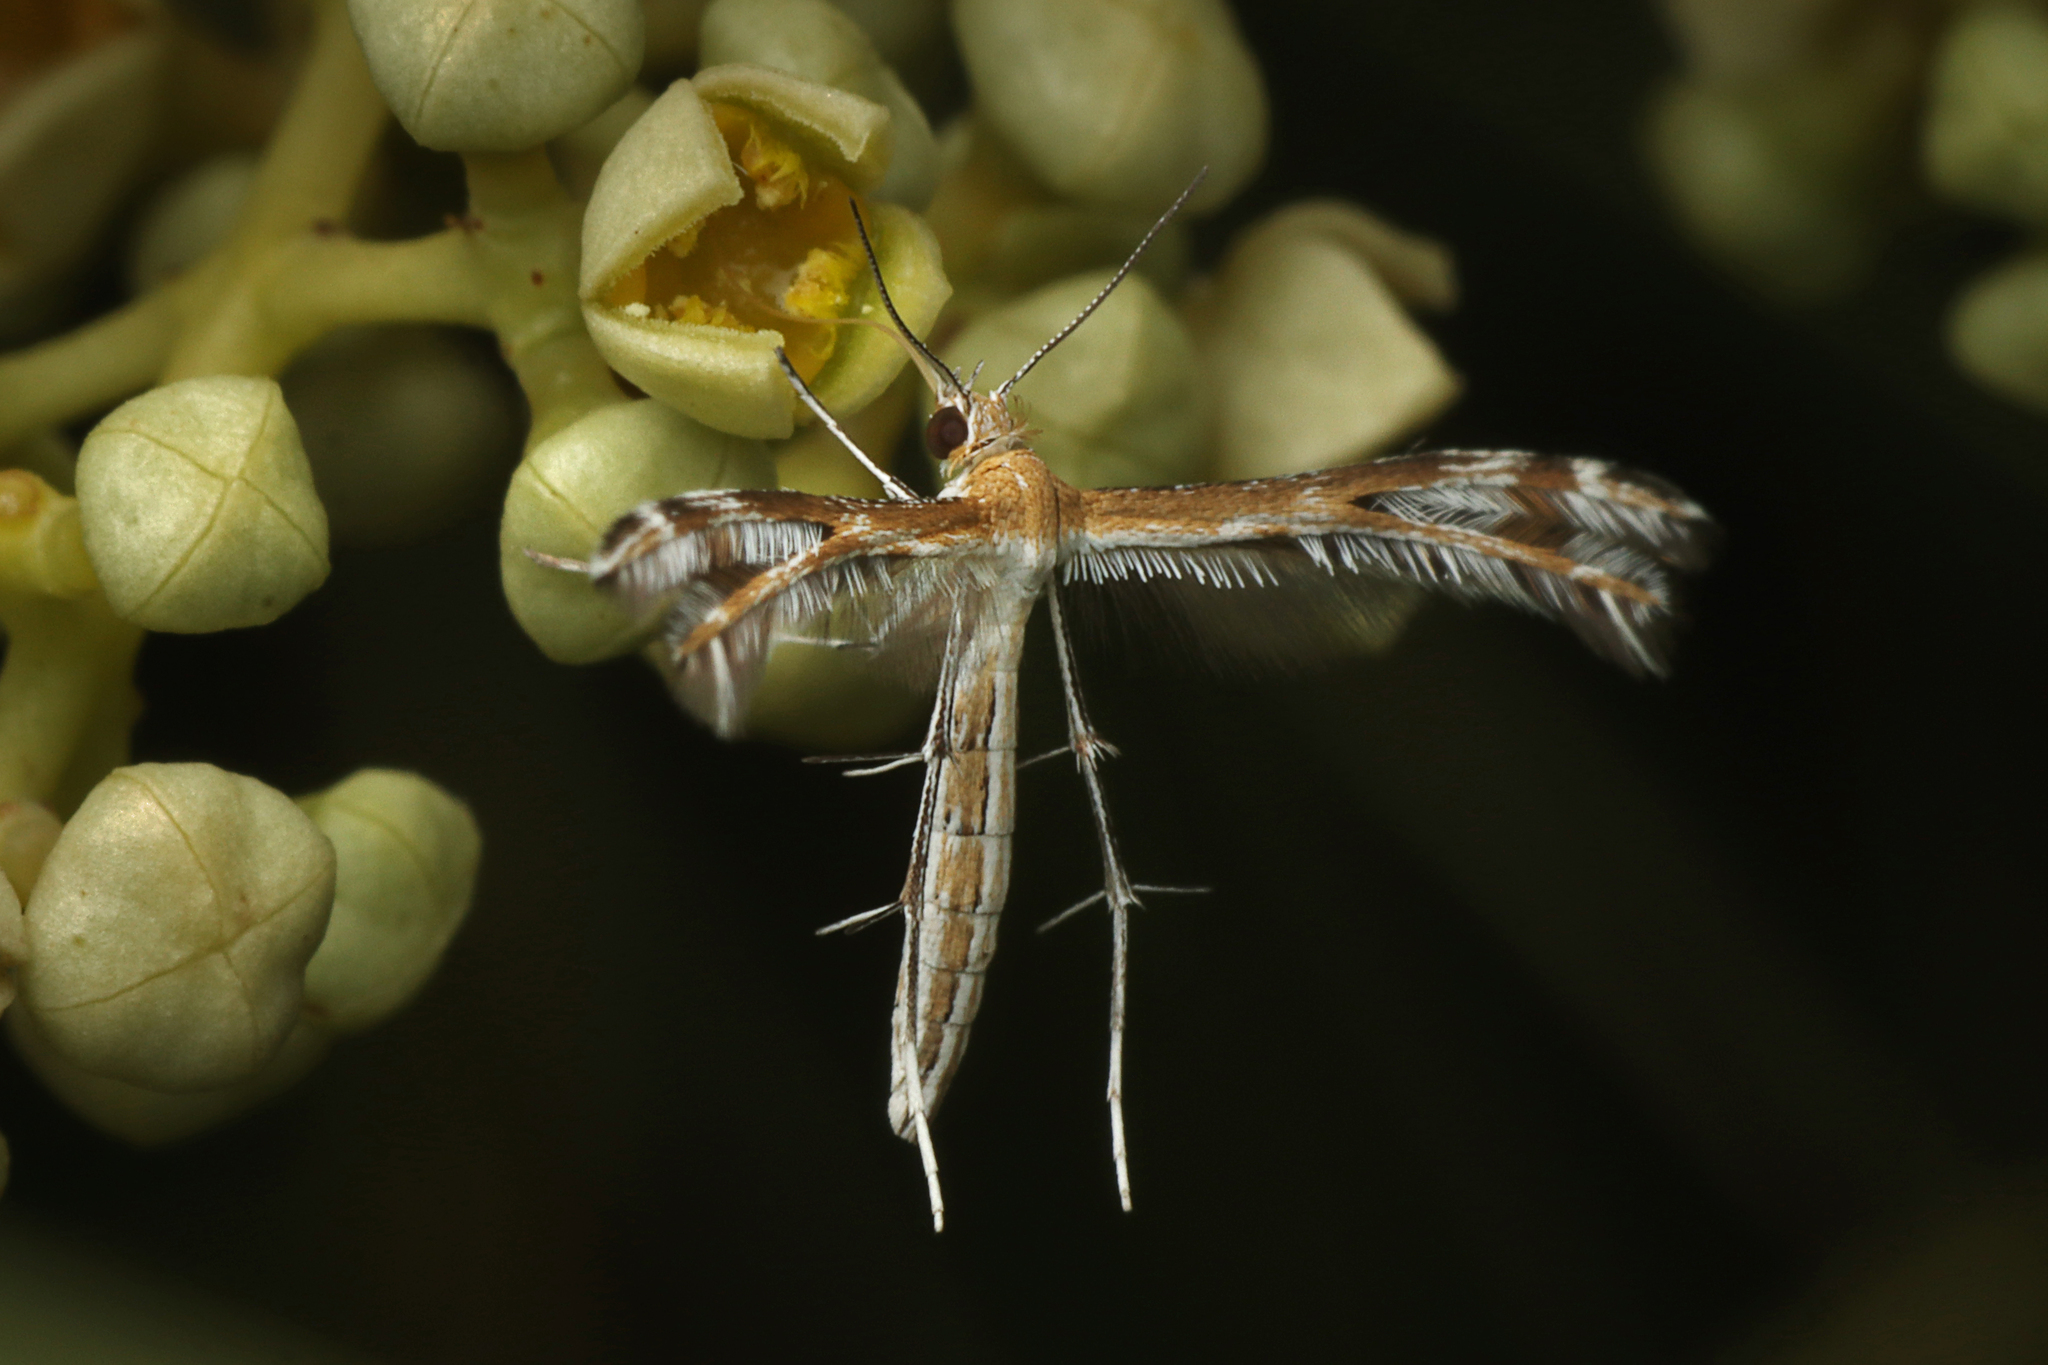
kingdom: Animalia
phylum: Arthropoda
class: Insecta
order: Lepidoptera
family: Pterophoridae
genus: Stangeia
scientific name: Stangeia xerodes
